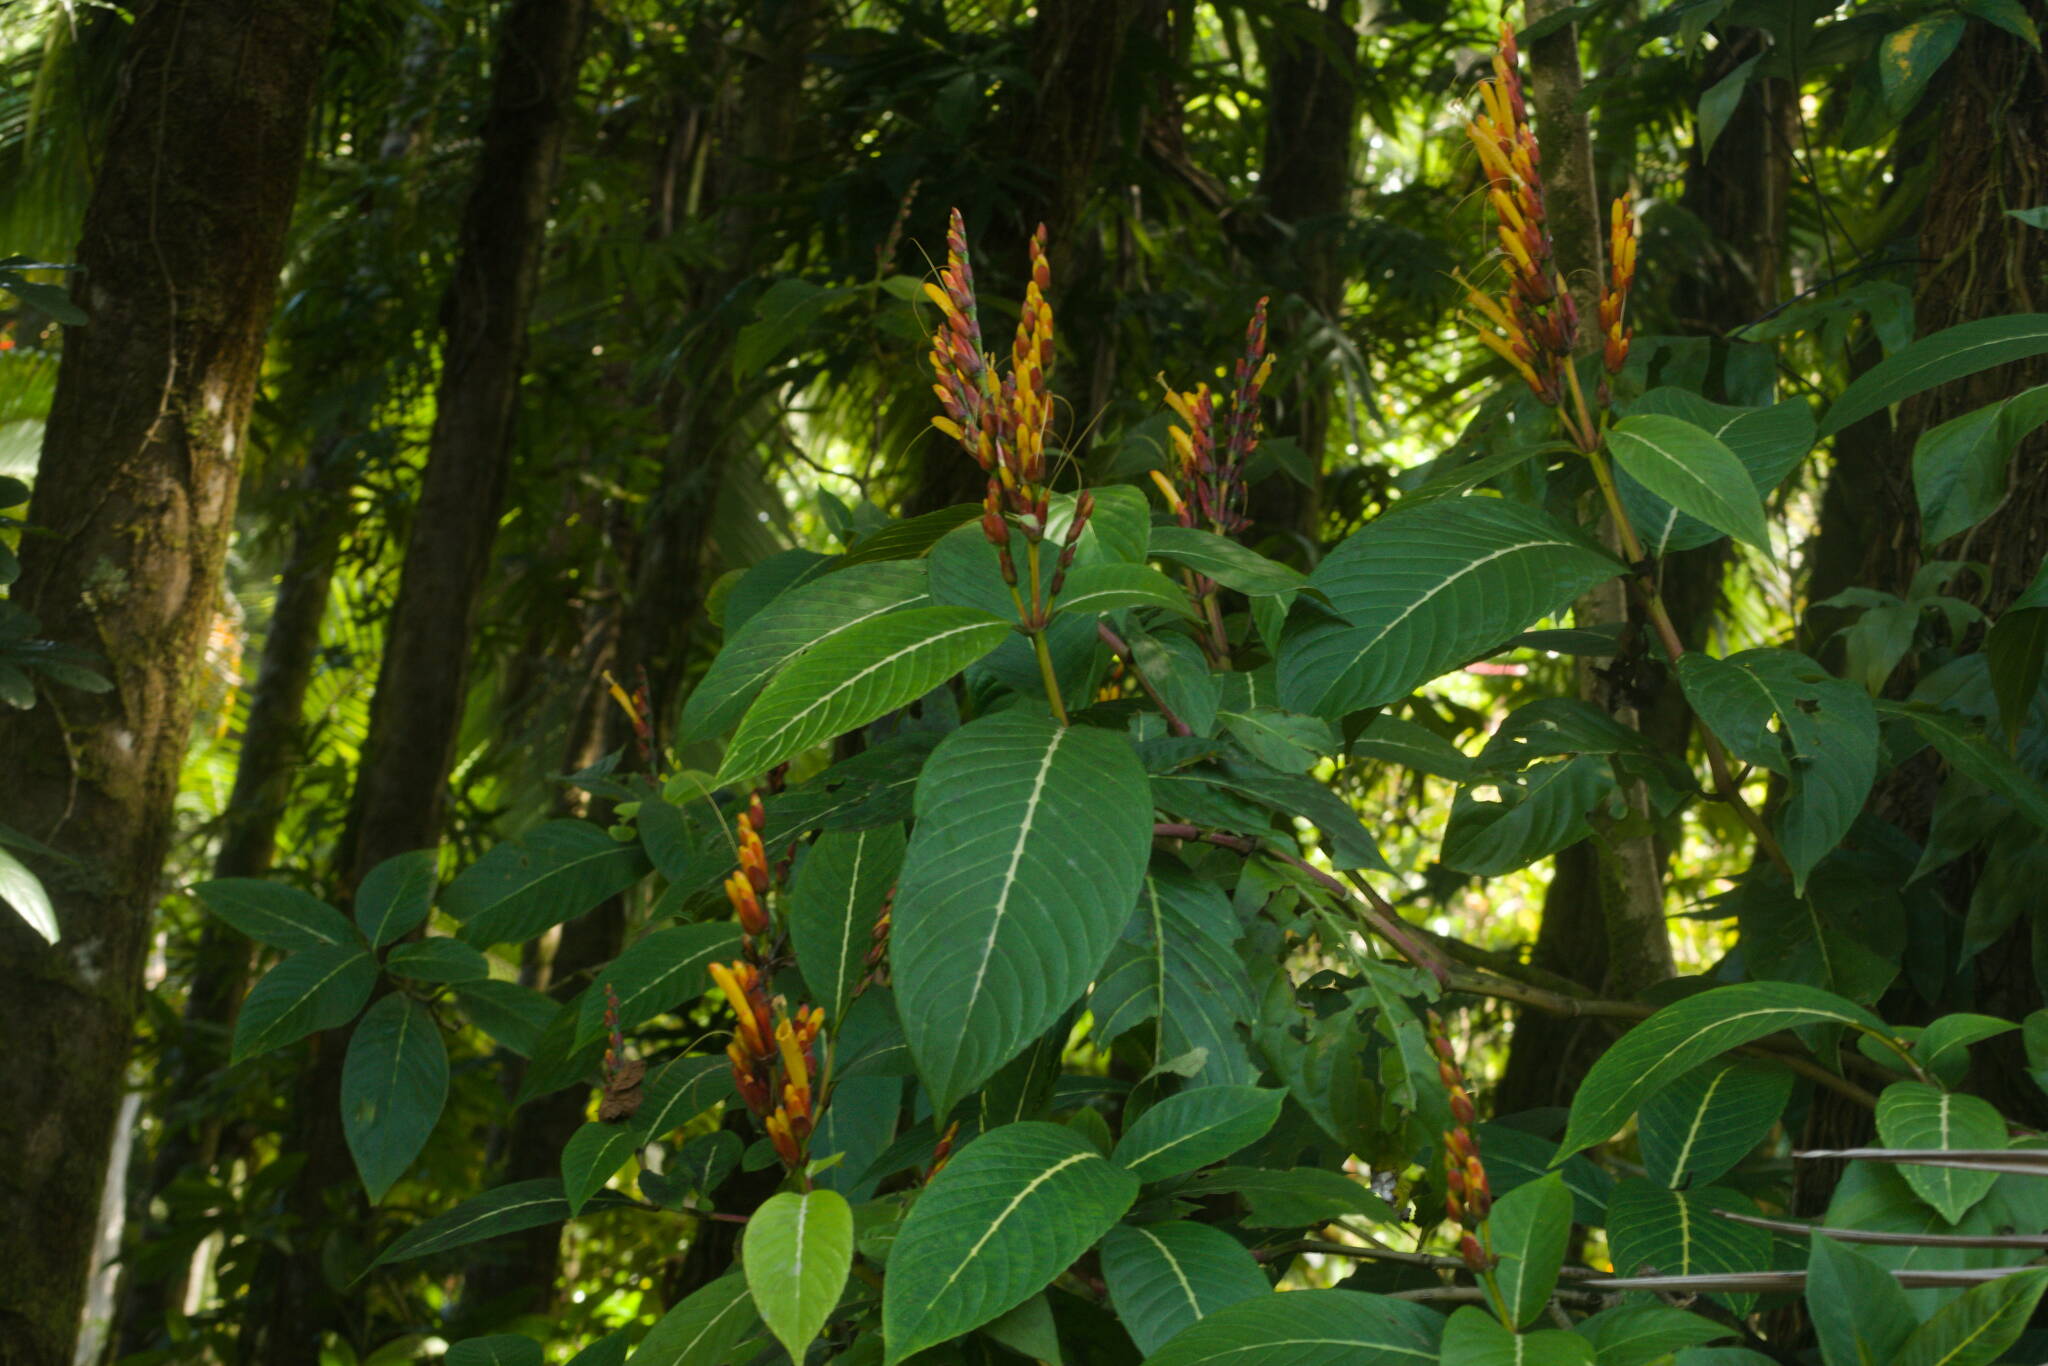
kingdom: Plantae
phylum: Tracheophyta
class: Magnoliopsida
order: Lamiales
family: Acanthaceae
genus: Sanchezia
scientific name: Sanchezia parvibracteata
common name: Sanchezia
